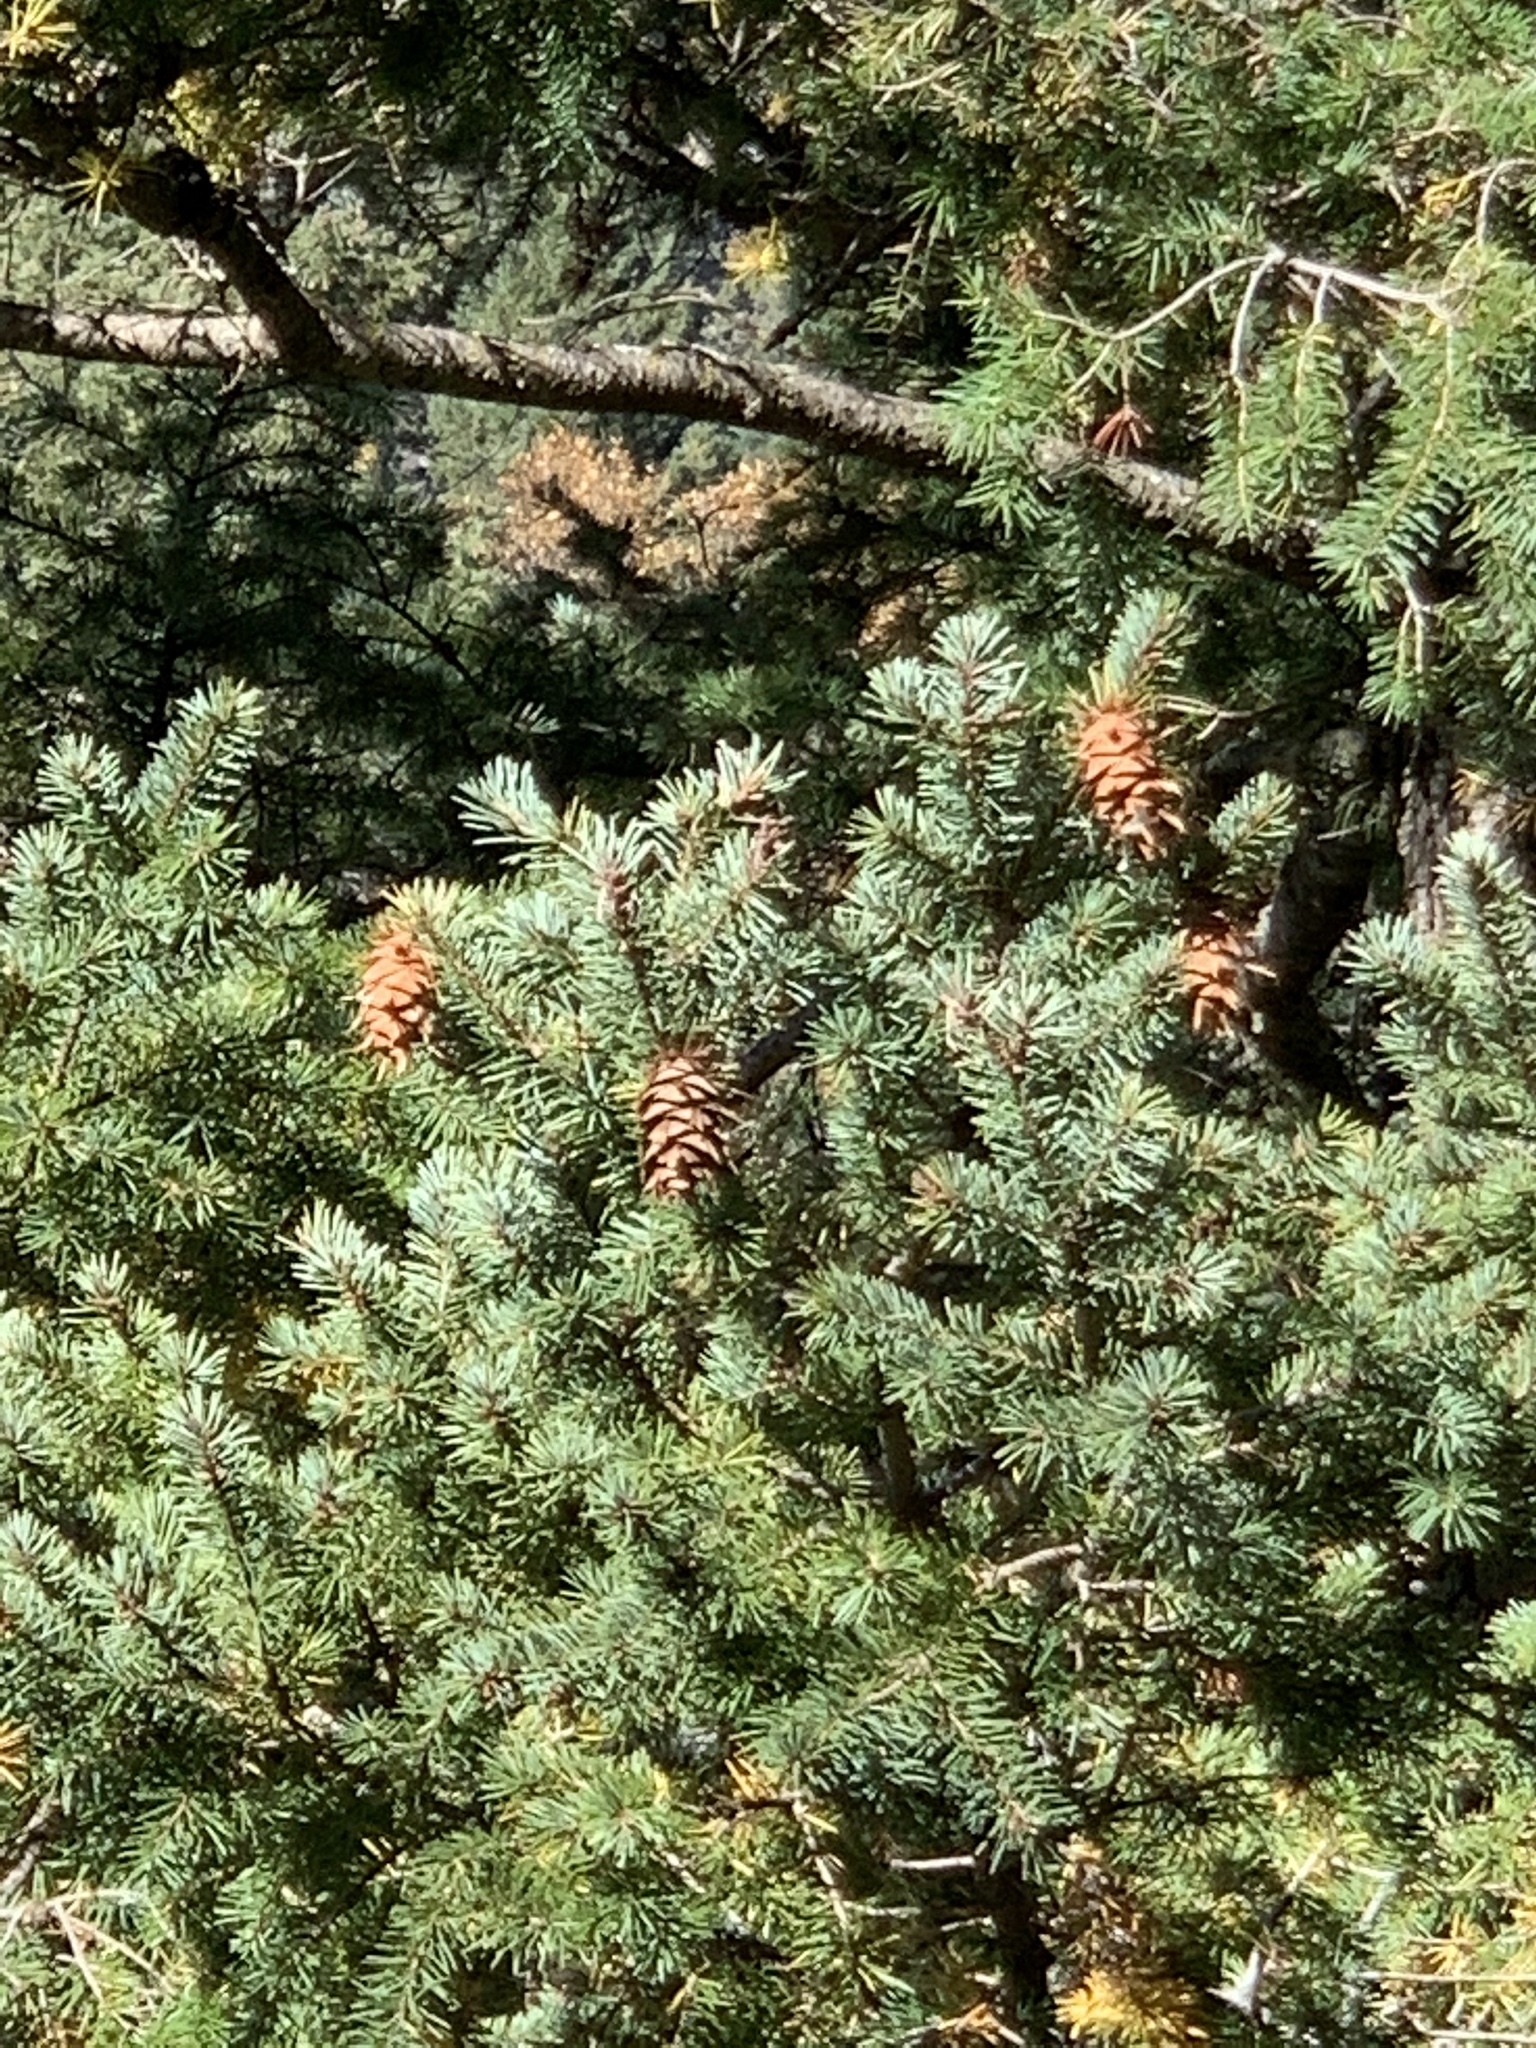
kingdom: Plantae
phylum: Tracheophyta
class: Pinopsida
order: Pinales
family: Pinaceae
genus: Pseudotsuga
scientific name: Pseudotsuga menziesii
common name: Douglas fir
